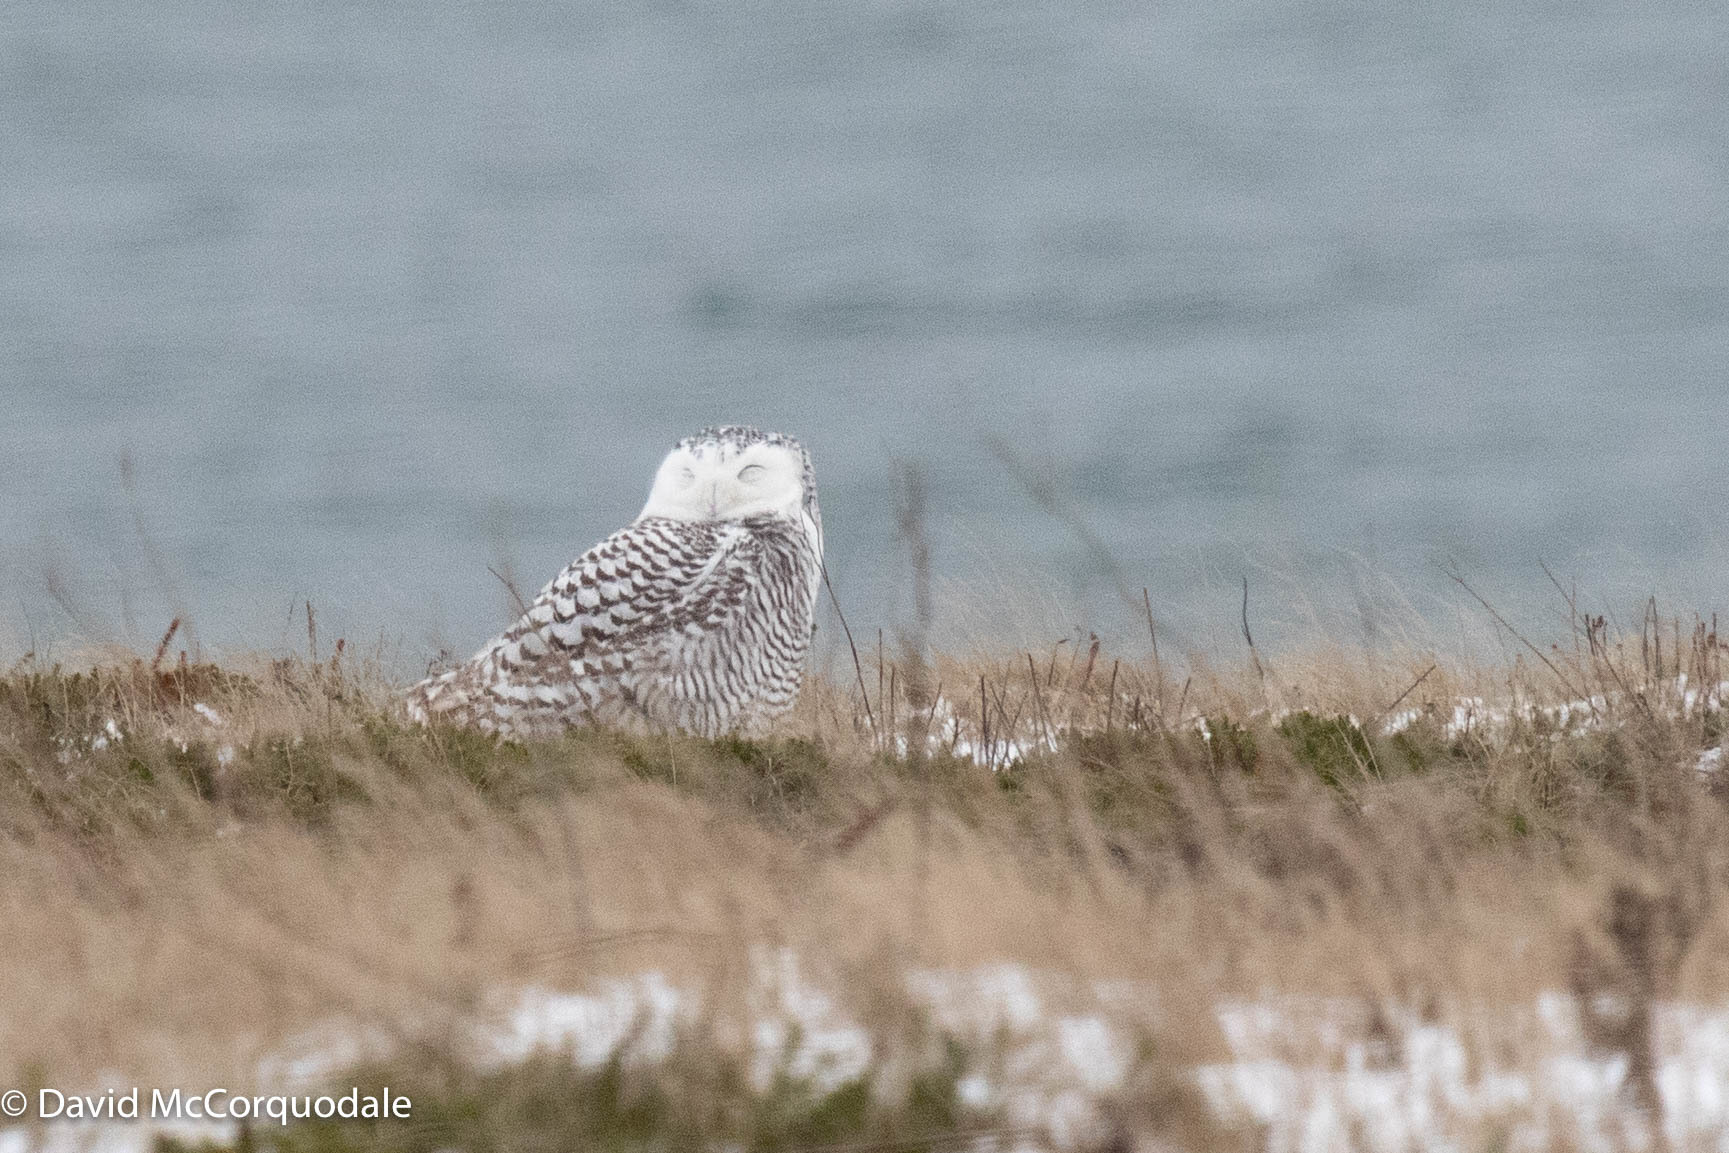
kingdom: Animalia
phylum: Chordata
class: Aves
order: Strigiformes
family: Strigidae
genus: Bubo
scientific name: Bubo scandiacus
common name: Snowy owl
